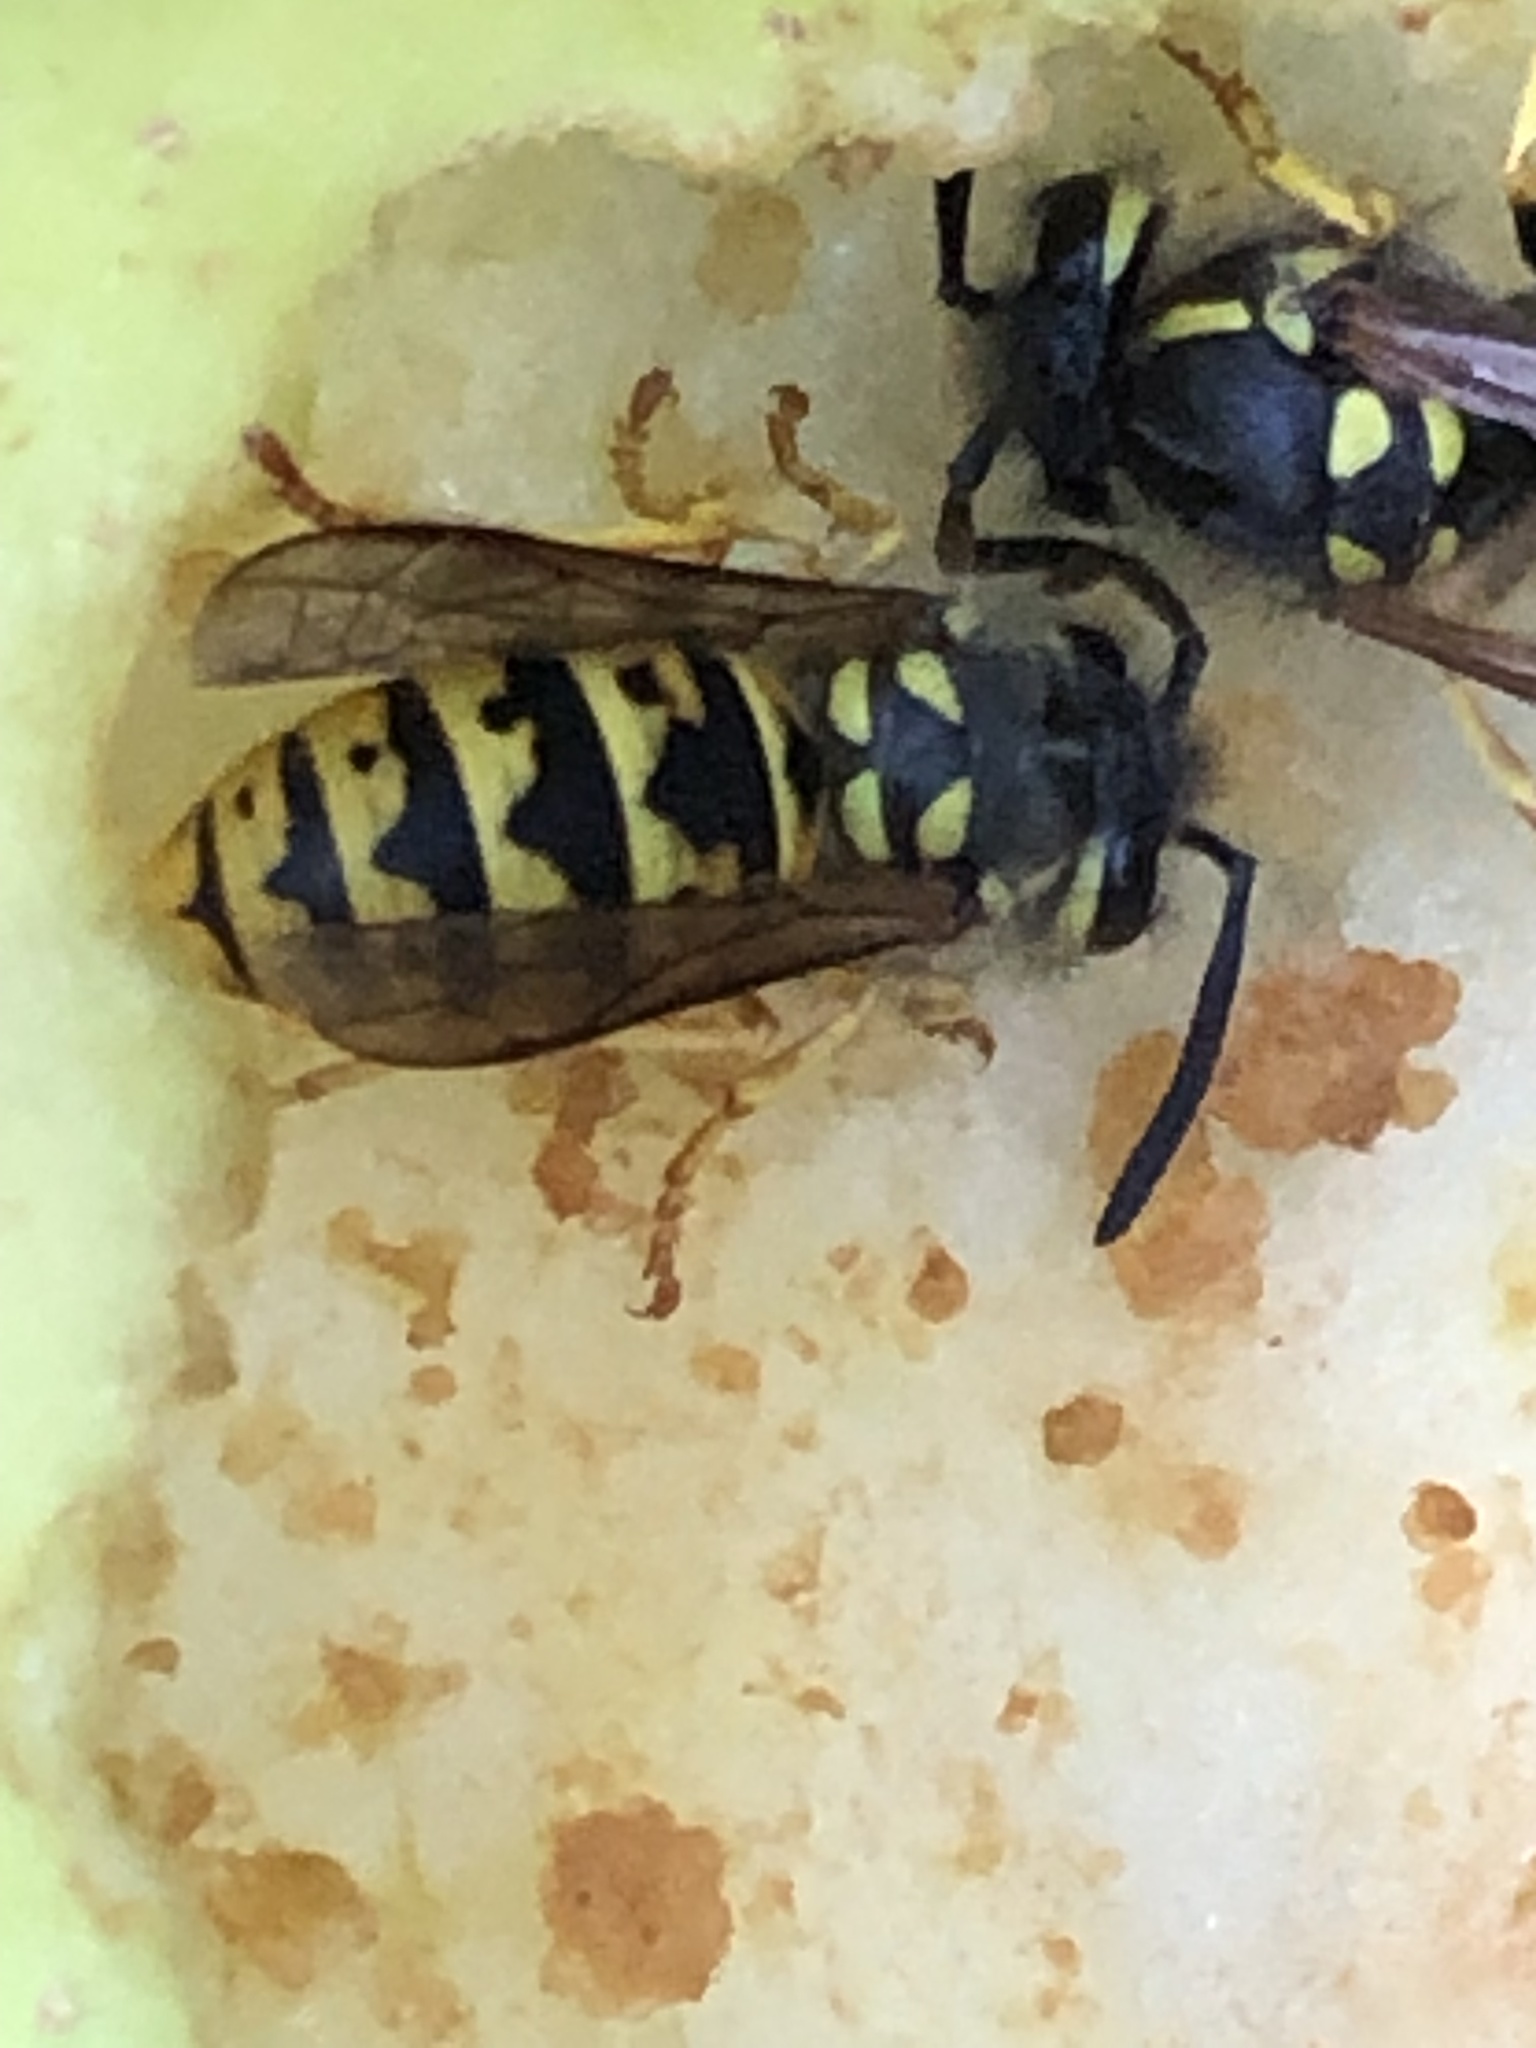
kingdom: Animalia
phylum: Arthropoda
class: Insecta
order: Hymenoptera
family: Vespidae
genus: Vespula
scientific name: Vespula germanica
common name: German wasp
